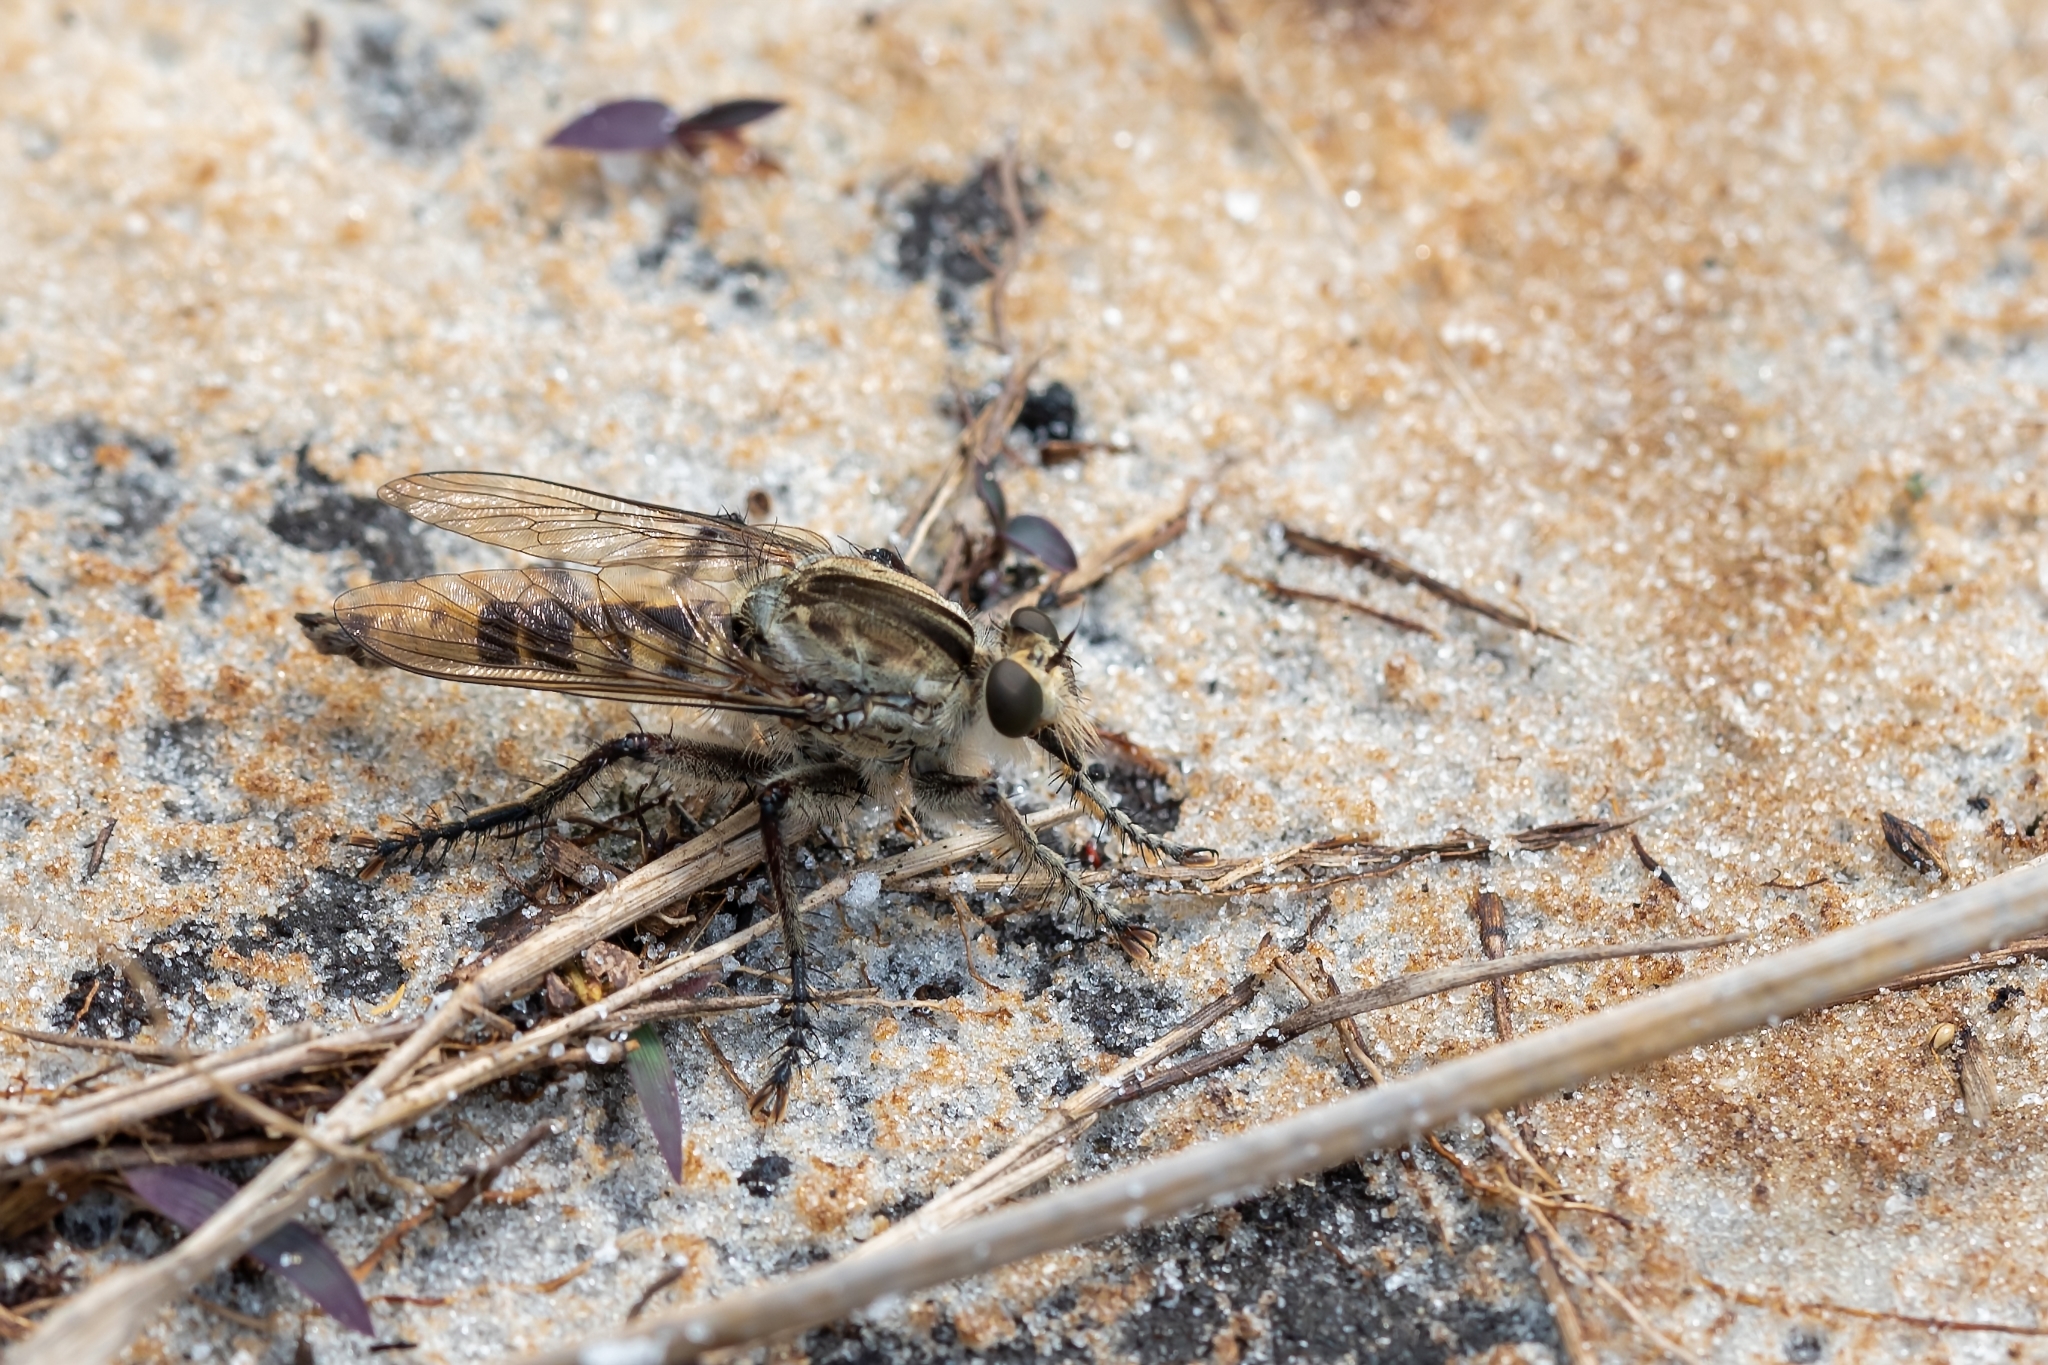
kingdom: Animalia
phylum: Arthropoda
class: Insecta
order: Diptera
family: Asilidae
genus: Triorla
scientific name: Triorla interrupta
